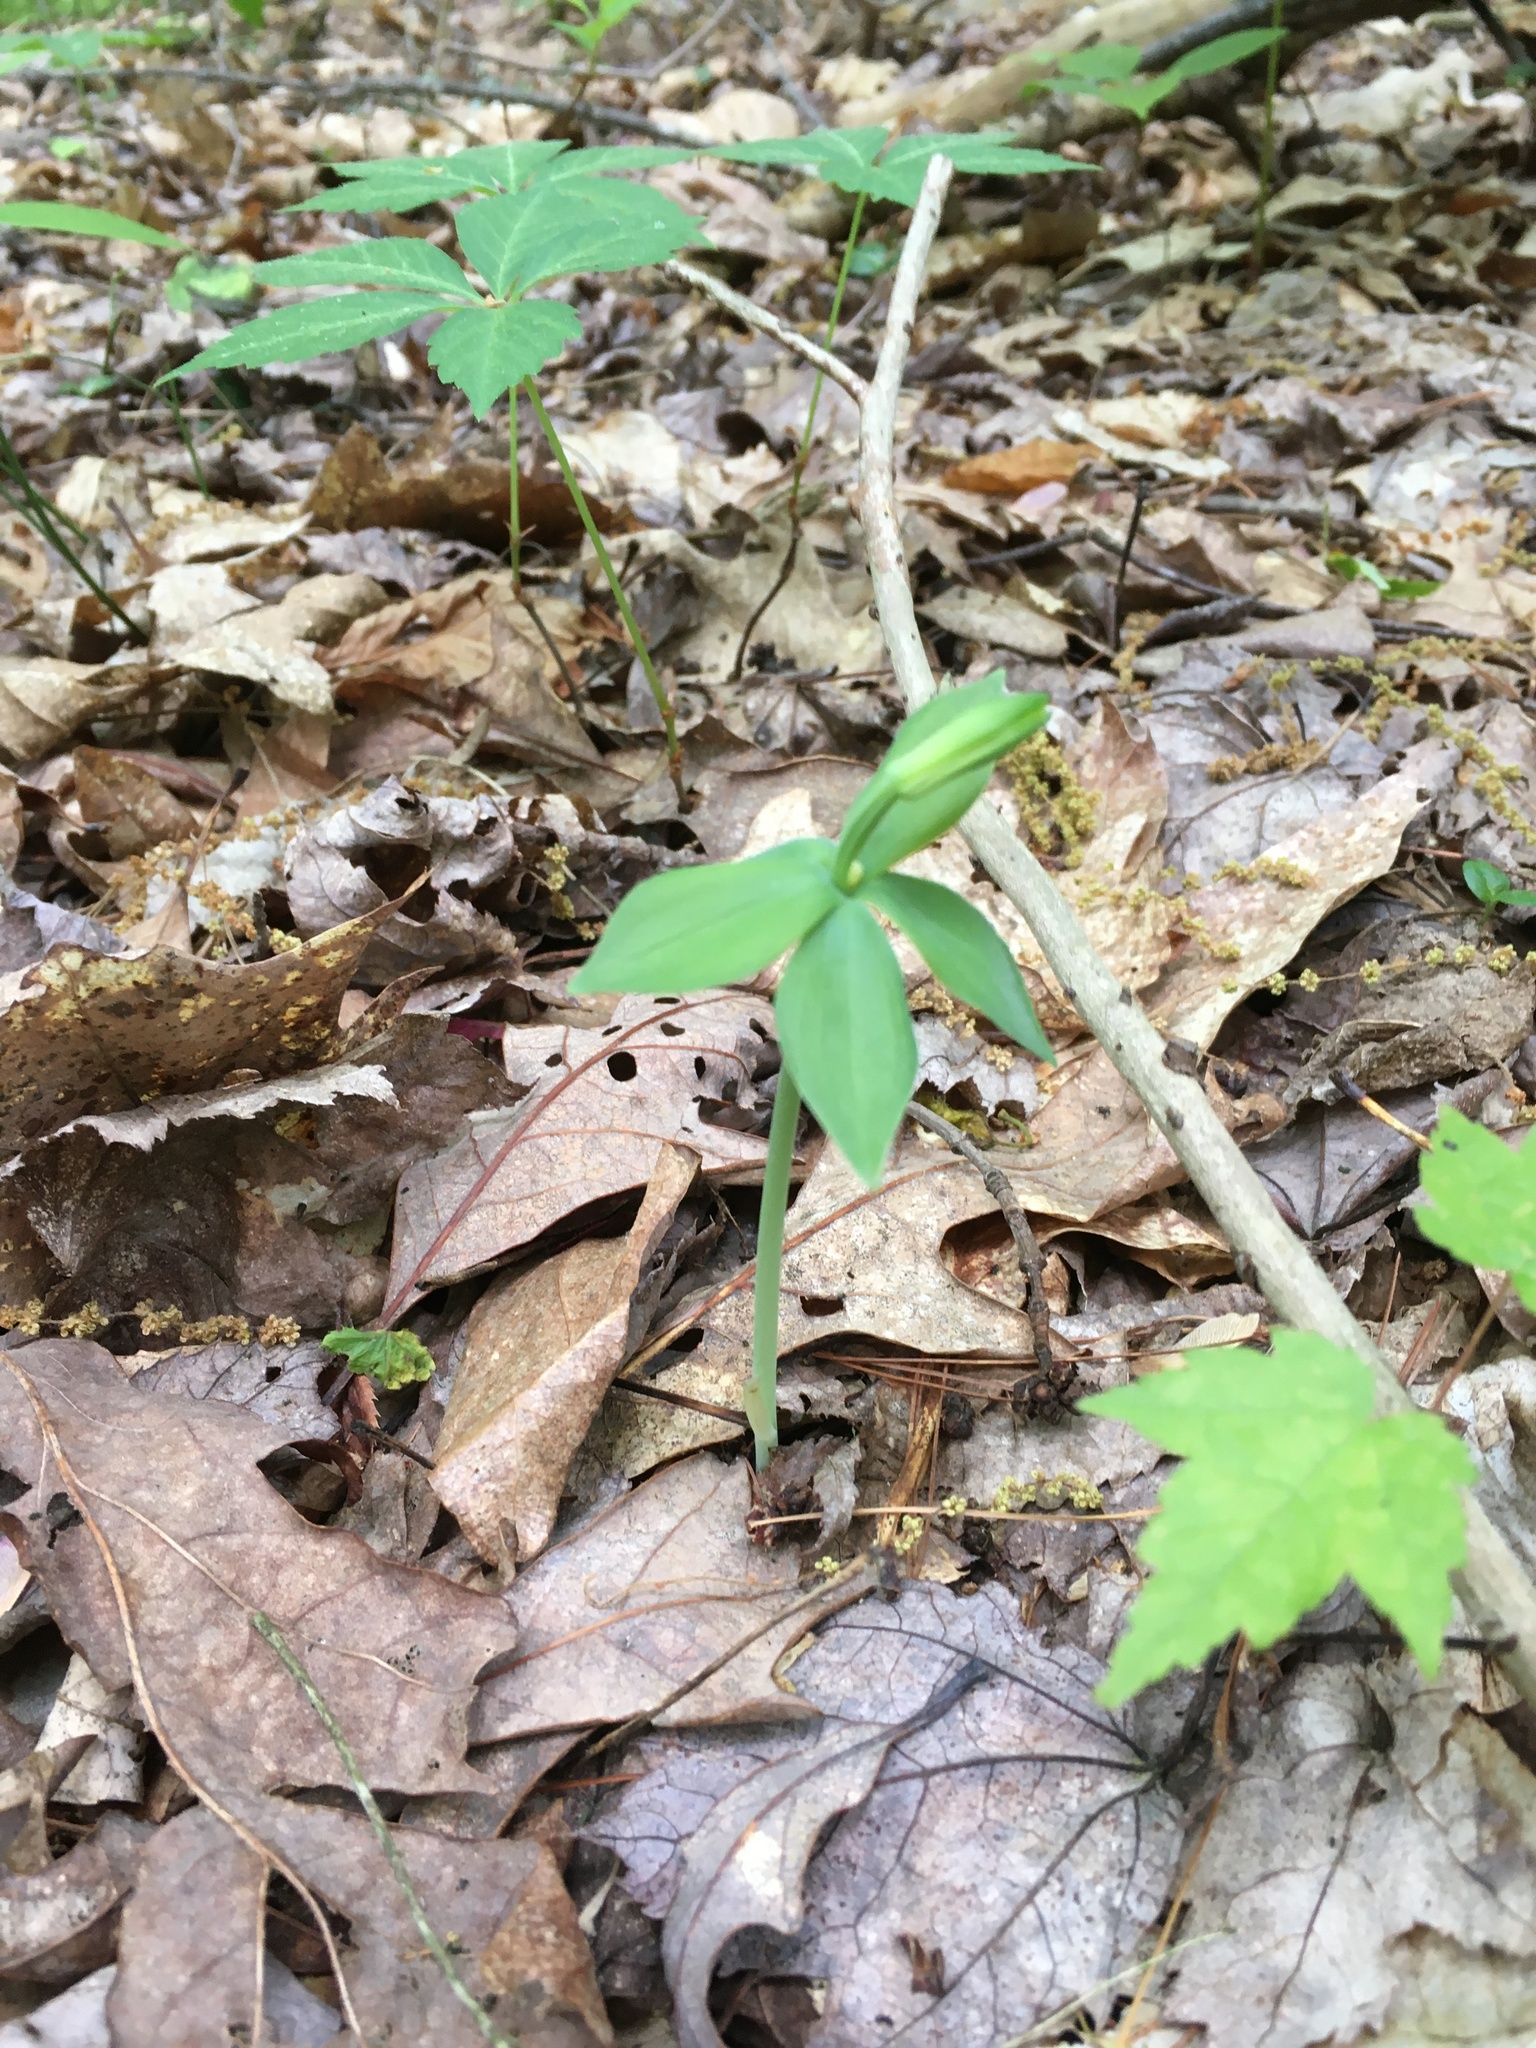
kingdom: Plantae
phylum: Tracheophyta
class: Liliopsida
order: Asparagales
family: Orchidaceae
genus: Isotria
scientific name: Isotria medeoloides
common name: Small whorled pogonia
